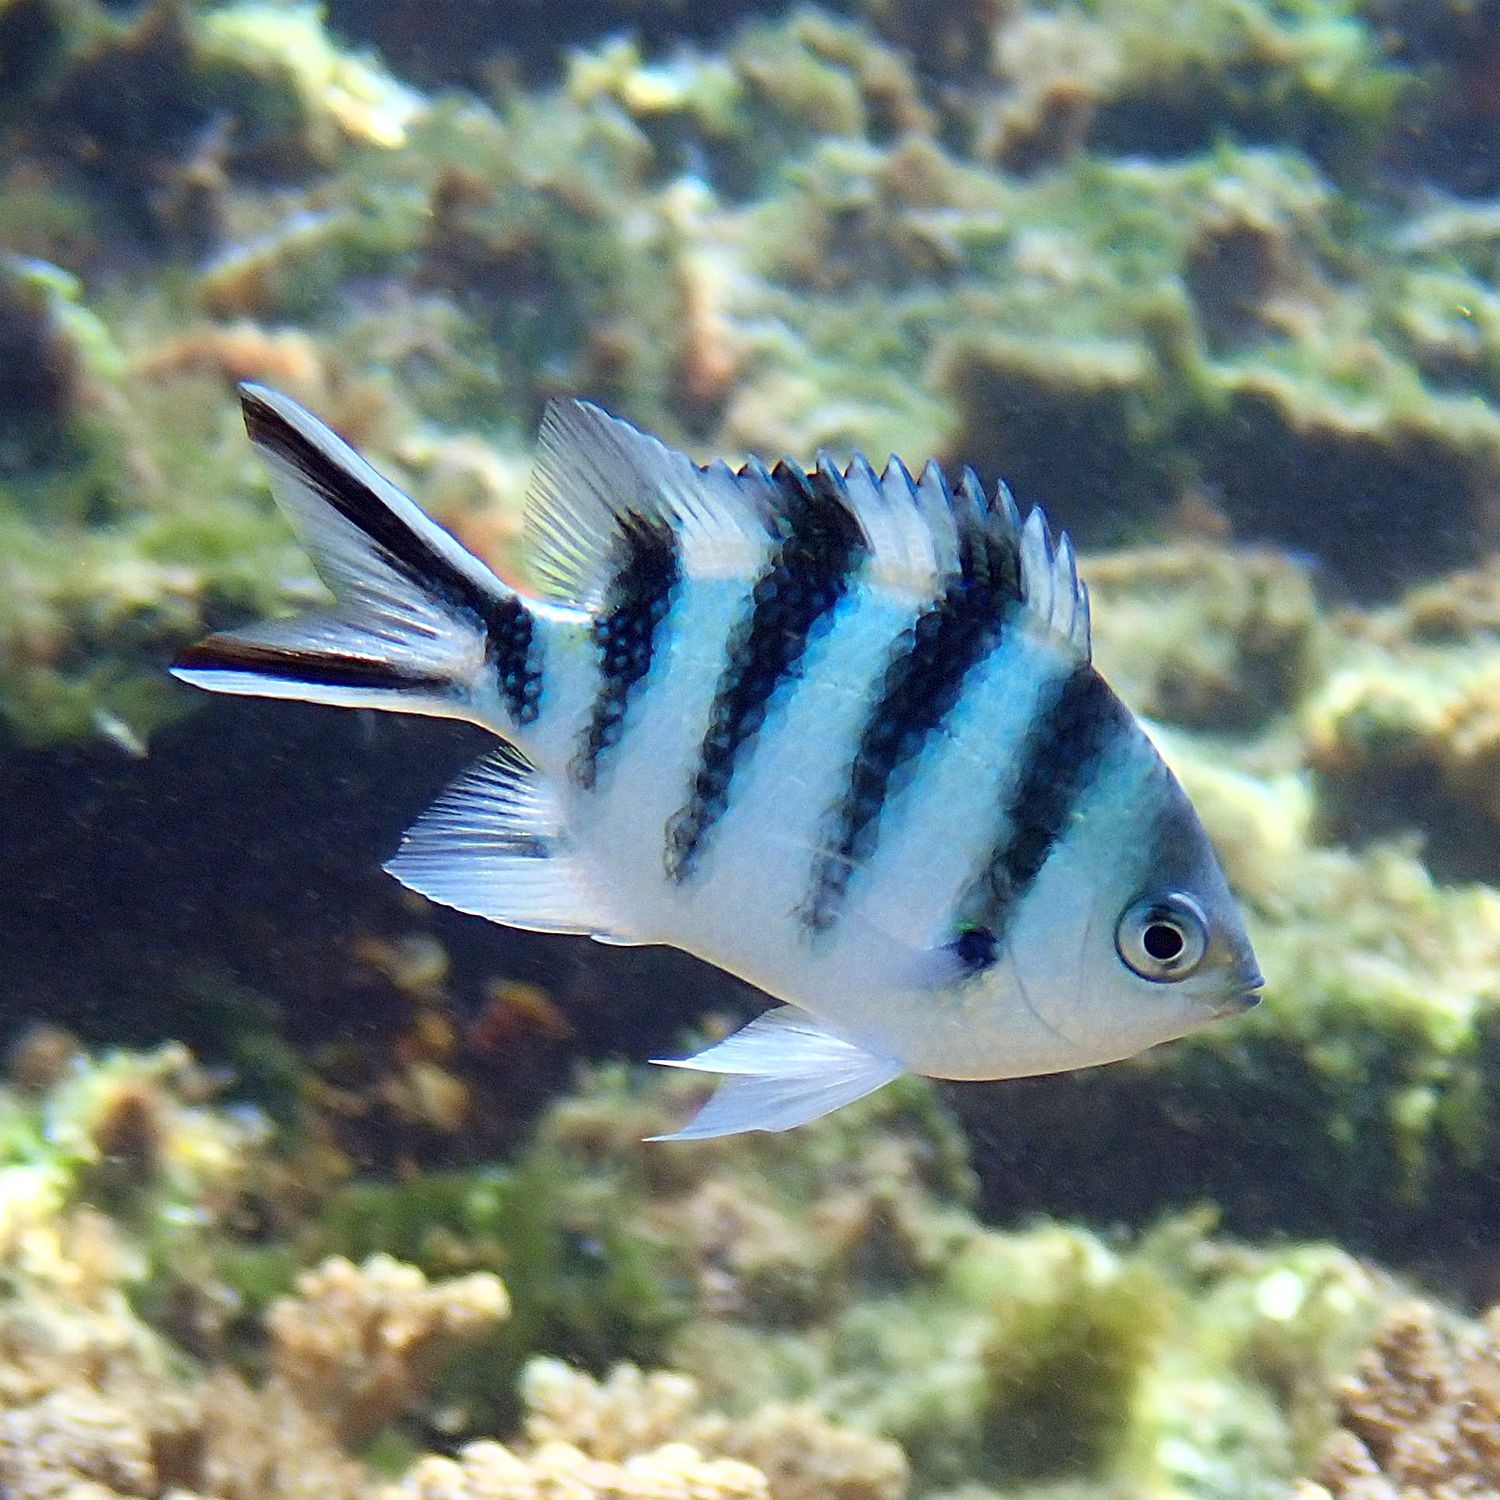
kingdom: Animalia
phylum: Chordata
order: Perciformes
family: Pomacentridae
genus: Abudefduf
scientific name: Abudefduf sexfasciatus
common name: Scissortail sergeant
